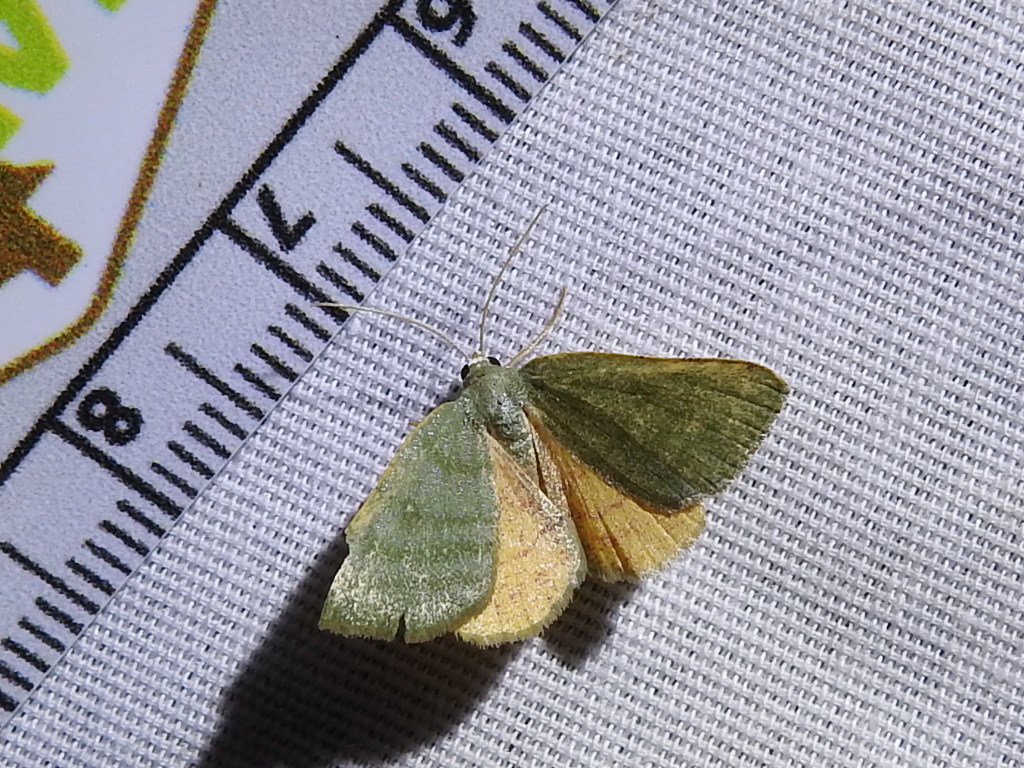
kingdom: Animalia
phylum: Arthropoda
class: Insecta
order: Lepidoptera
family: Geometridae
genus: Chloraspilates
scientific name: Chloraspilates bicoloraria
